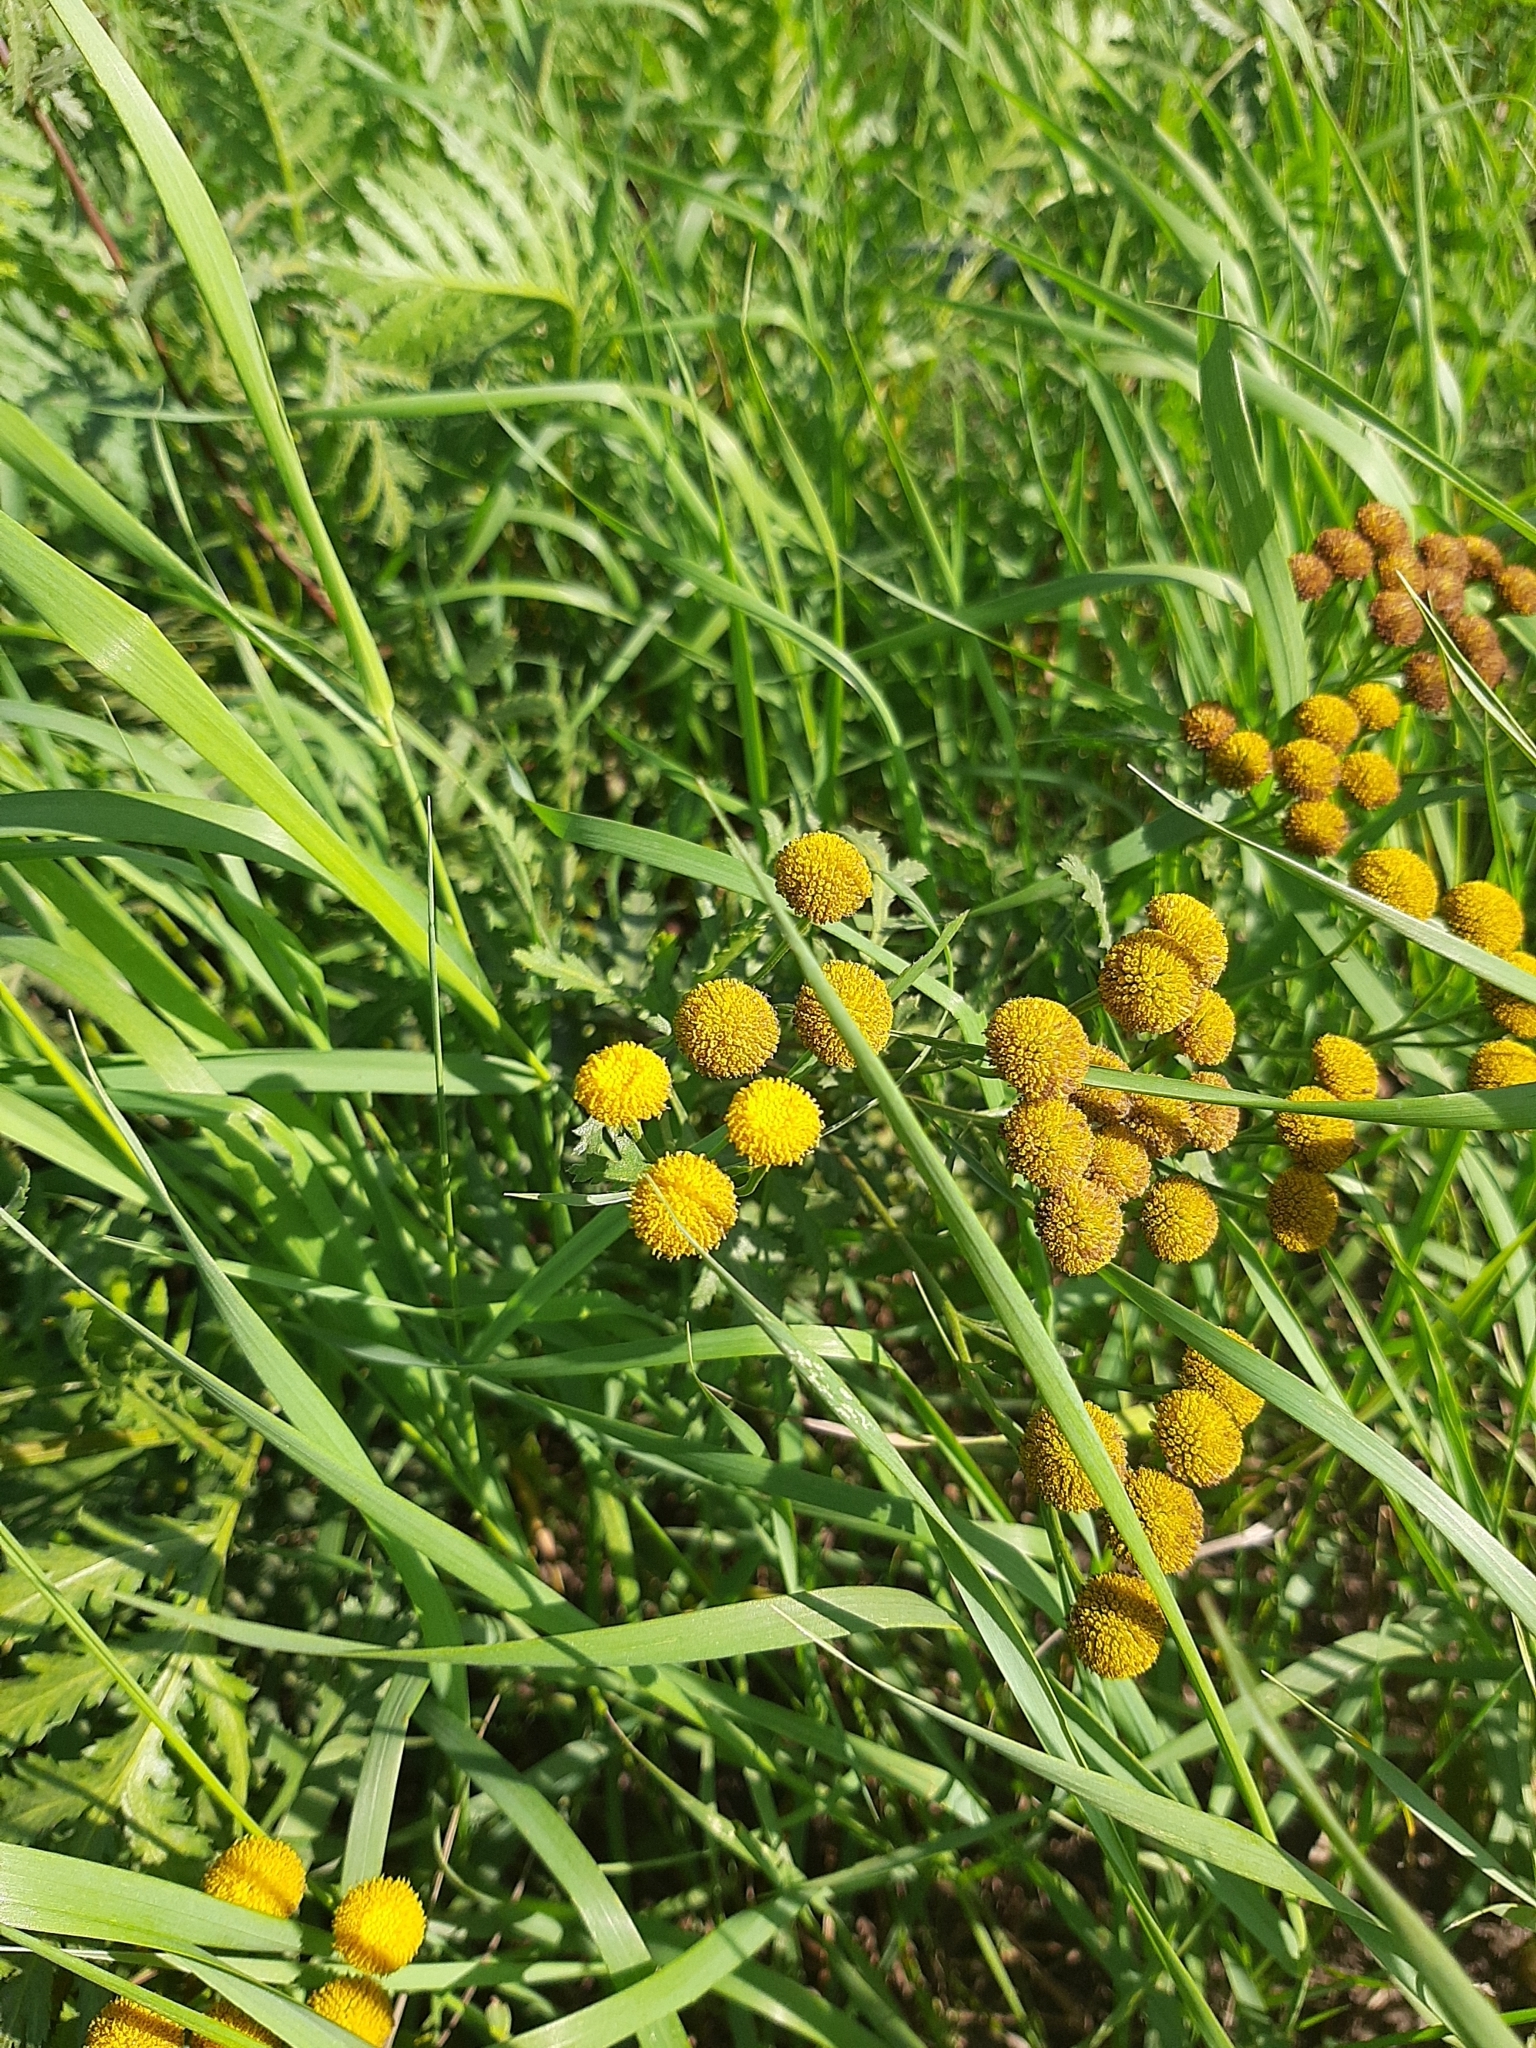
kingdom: Plantae
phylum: Tracheophyta
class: Magnoliopsida
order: Asterales
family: Asteraceae
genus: Tanacetum
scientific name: Tanacetum vulgare
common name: Common tansy
